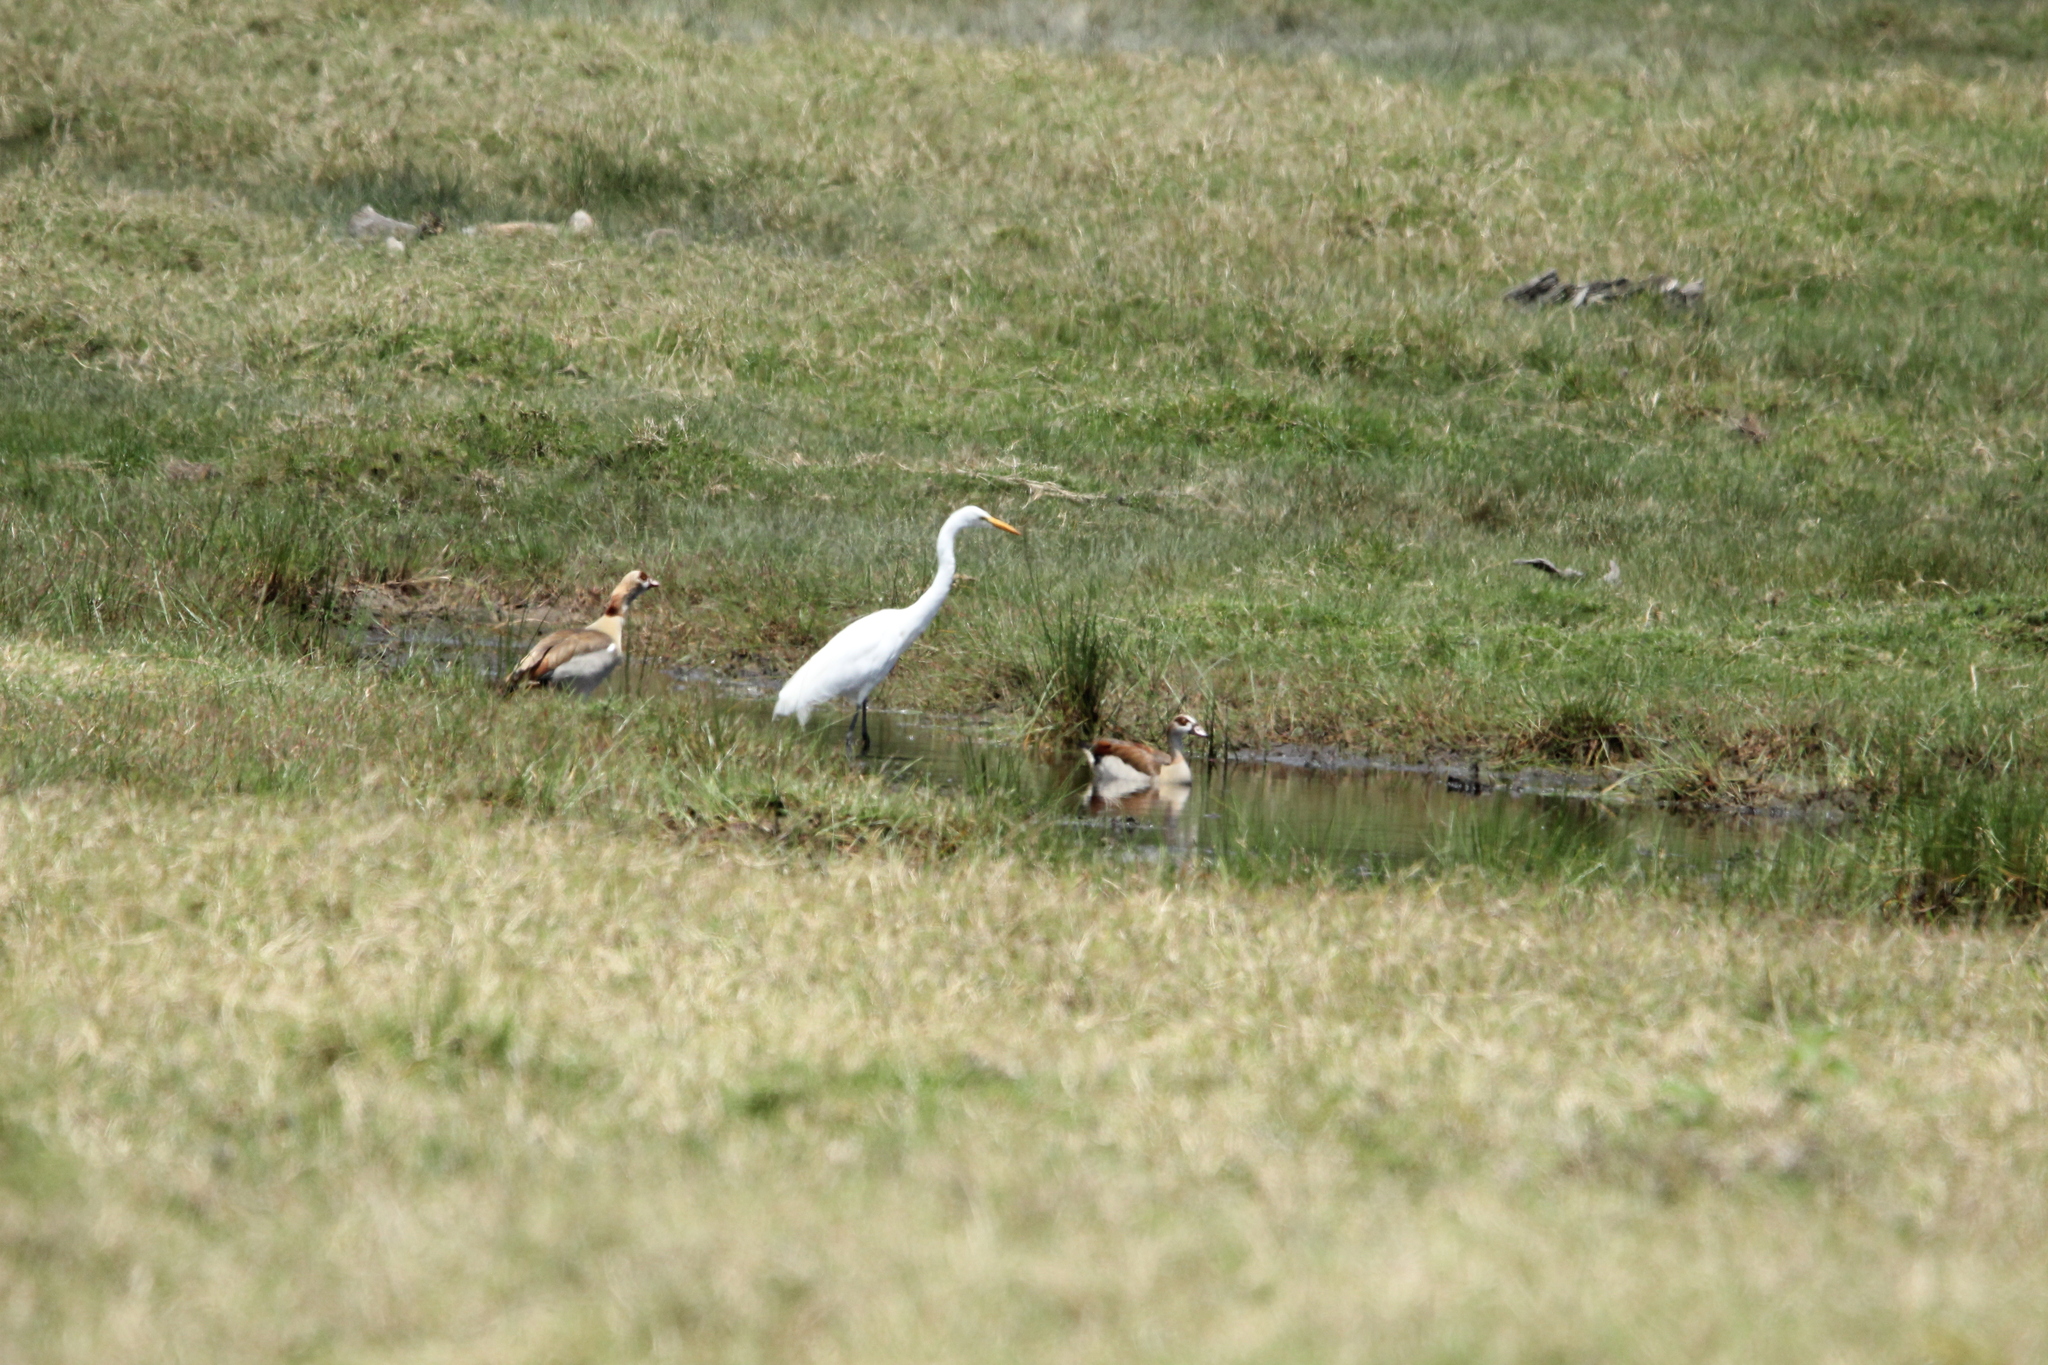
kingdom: Animalia
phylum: Chordata
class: Aves
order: Pelecaniformes
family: Ardeidae
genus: Ardea
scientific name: Ardea alba
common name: Great egret
